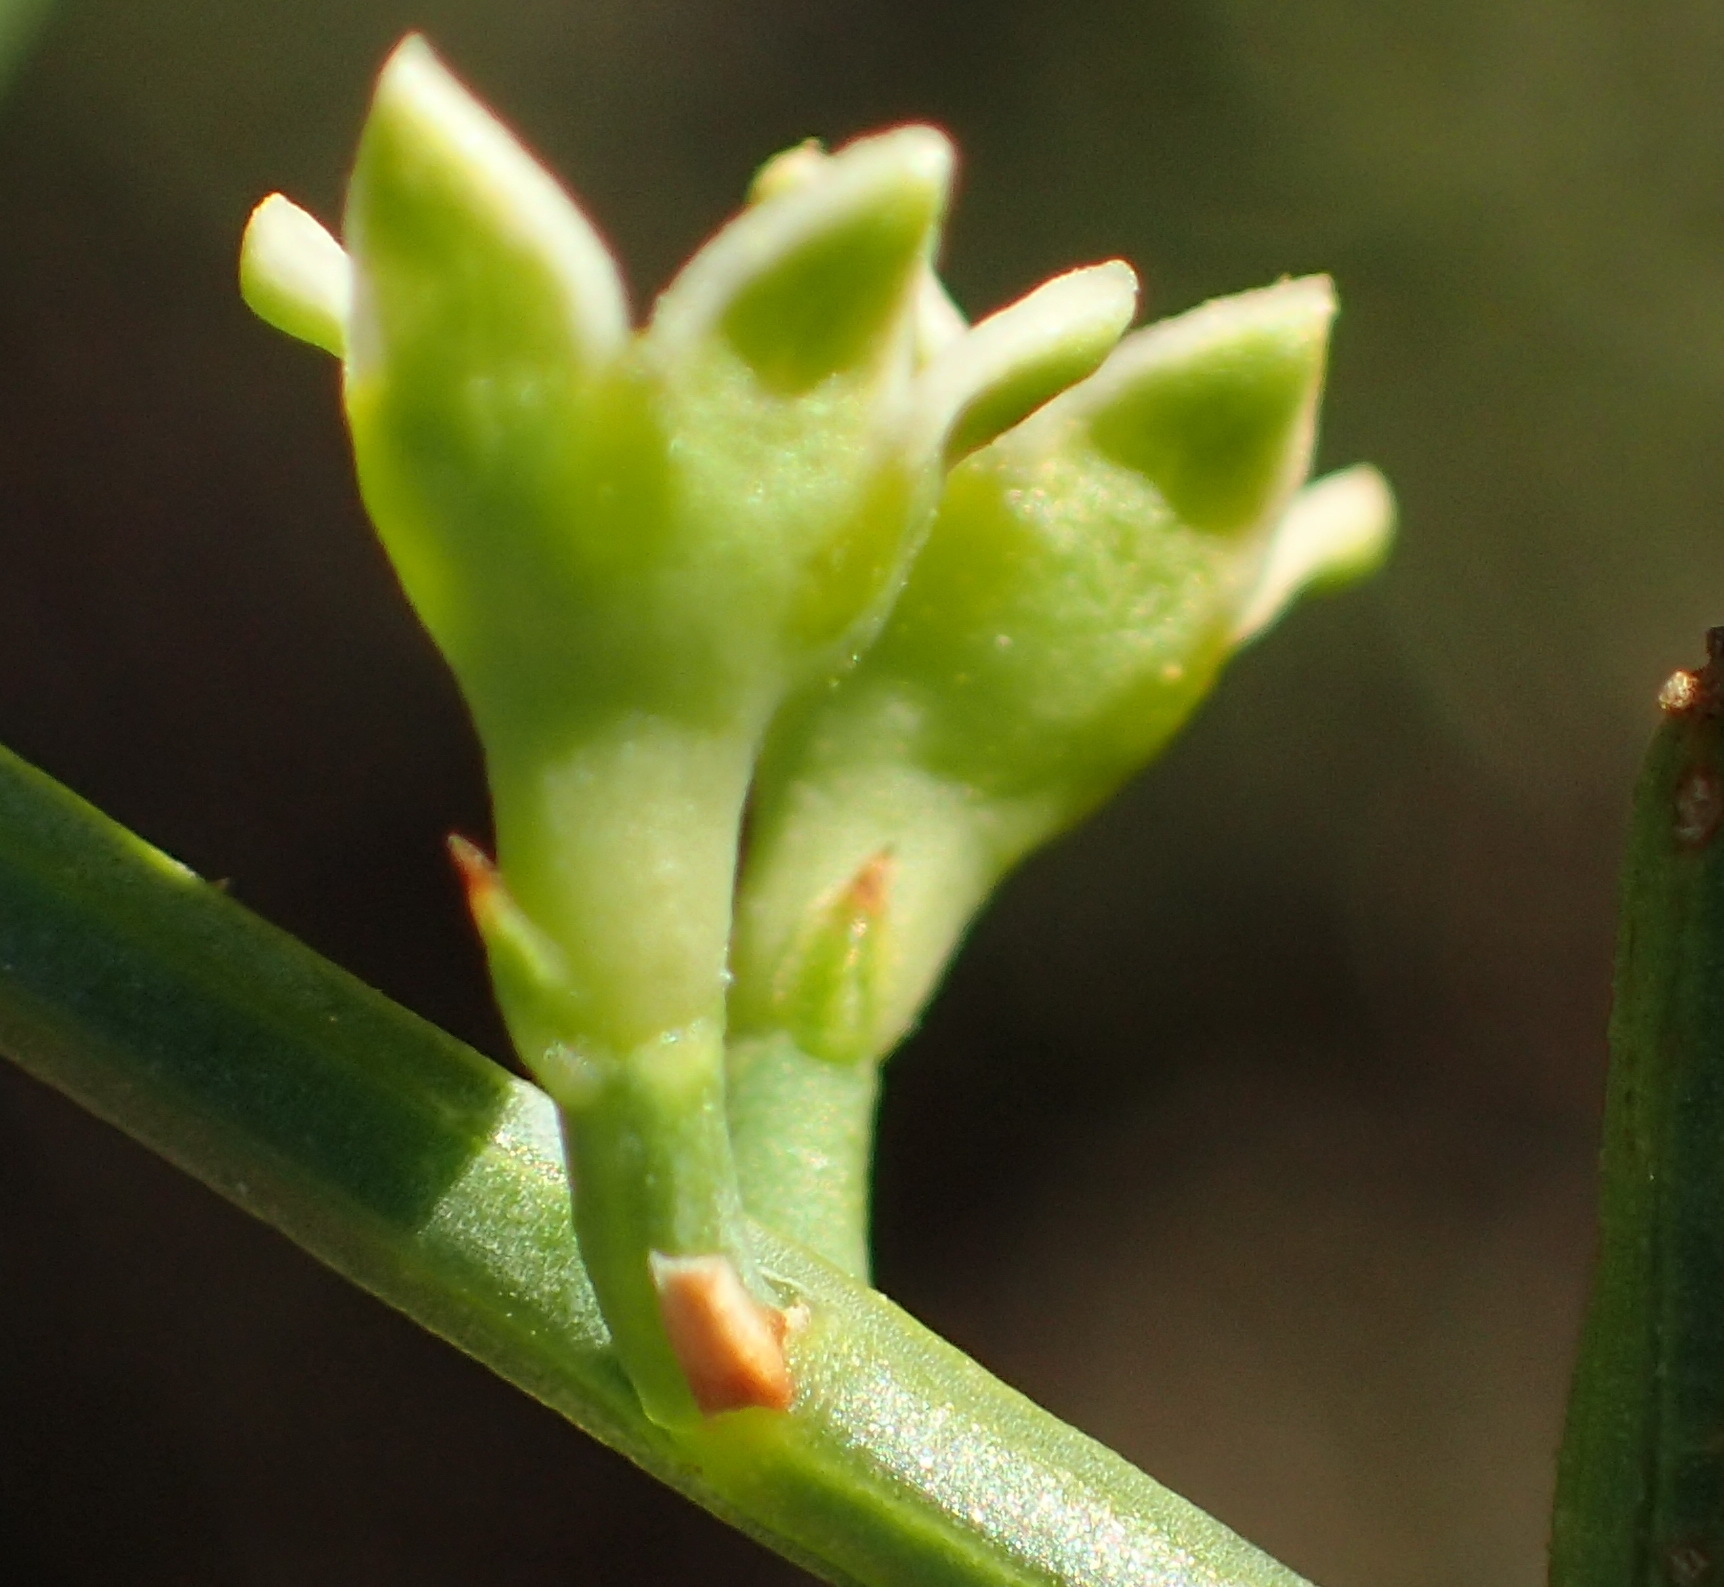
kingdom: Plantae
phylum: Tracheophyta
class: Magnoliopsida
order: Santalales
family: Thesiaceae
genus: Lacomucinaea
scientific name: Lacomucinaea lineata
